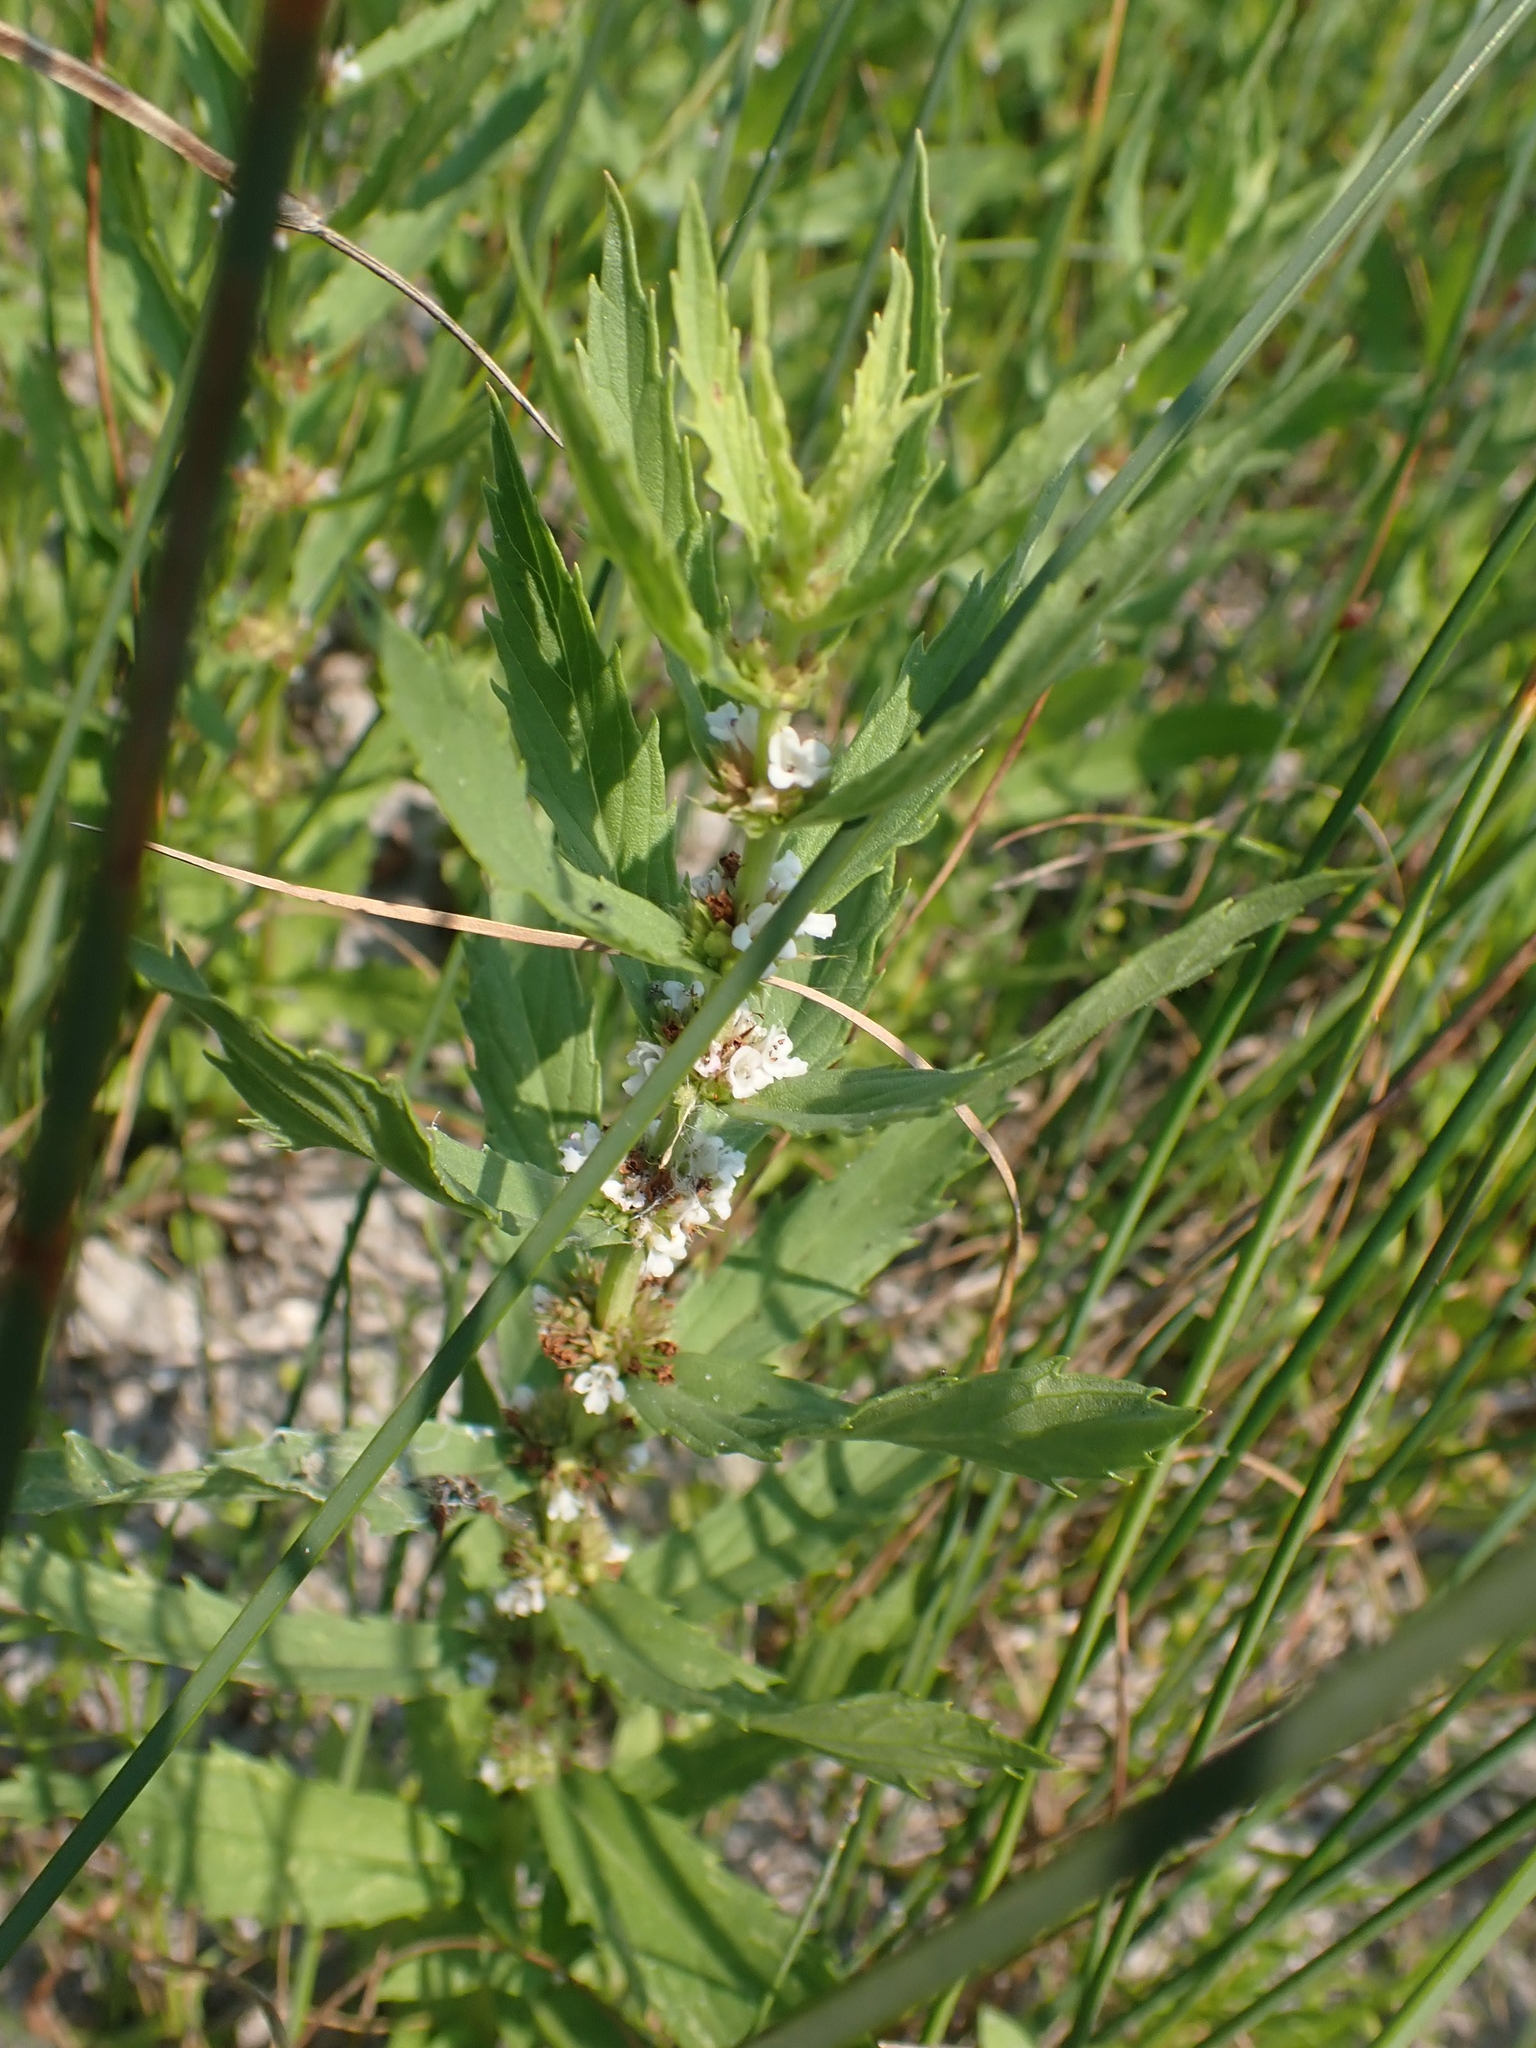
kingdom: Plantae
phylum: Tracheophyta
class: Magnoliopsida
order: Lamiales
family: Lamiaceae
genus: Lycopus
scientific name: Lycopus uniflorus
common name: Northern bugleweed
